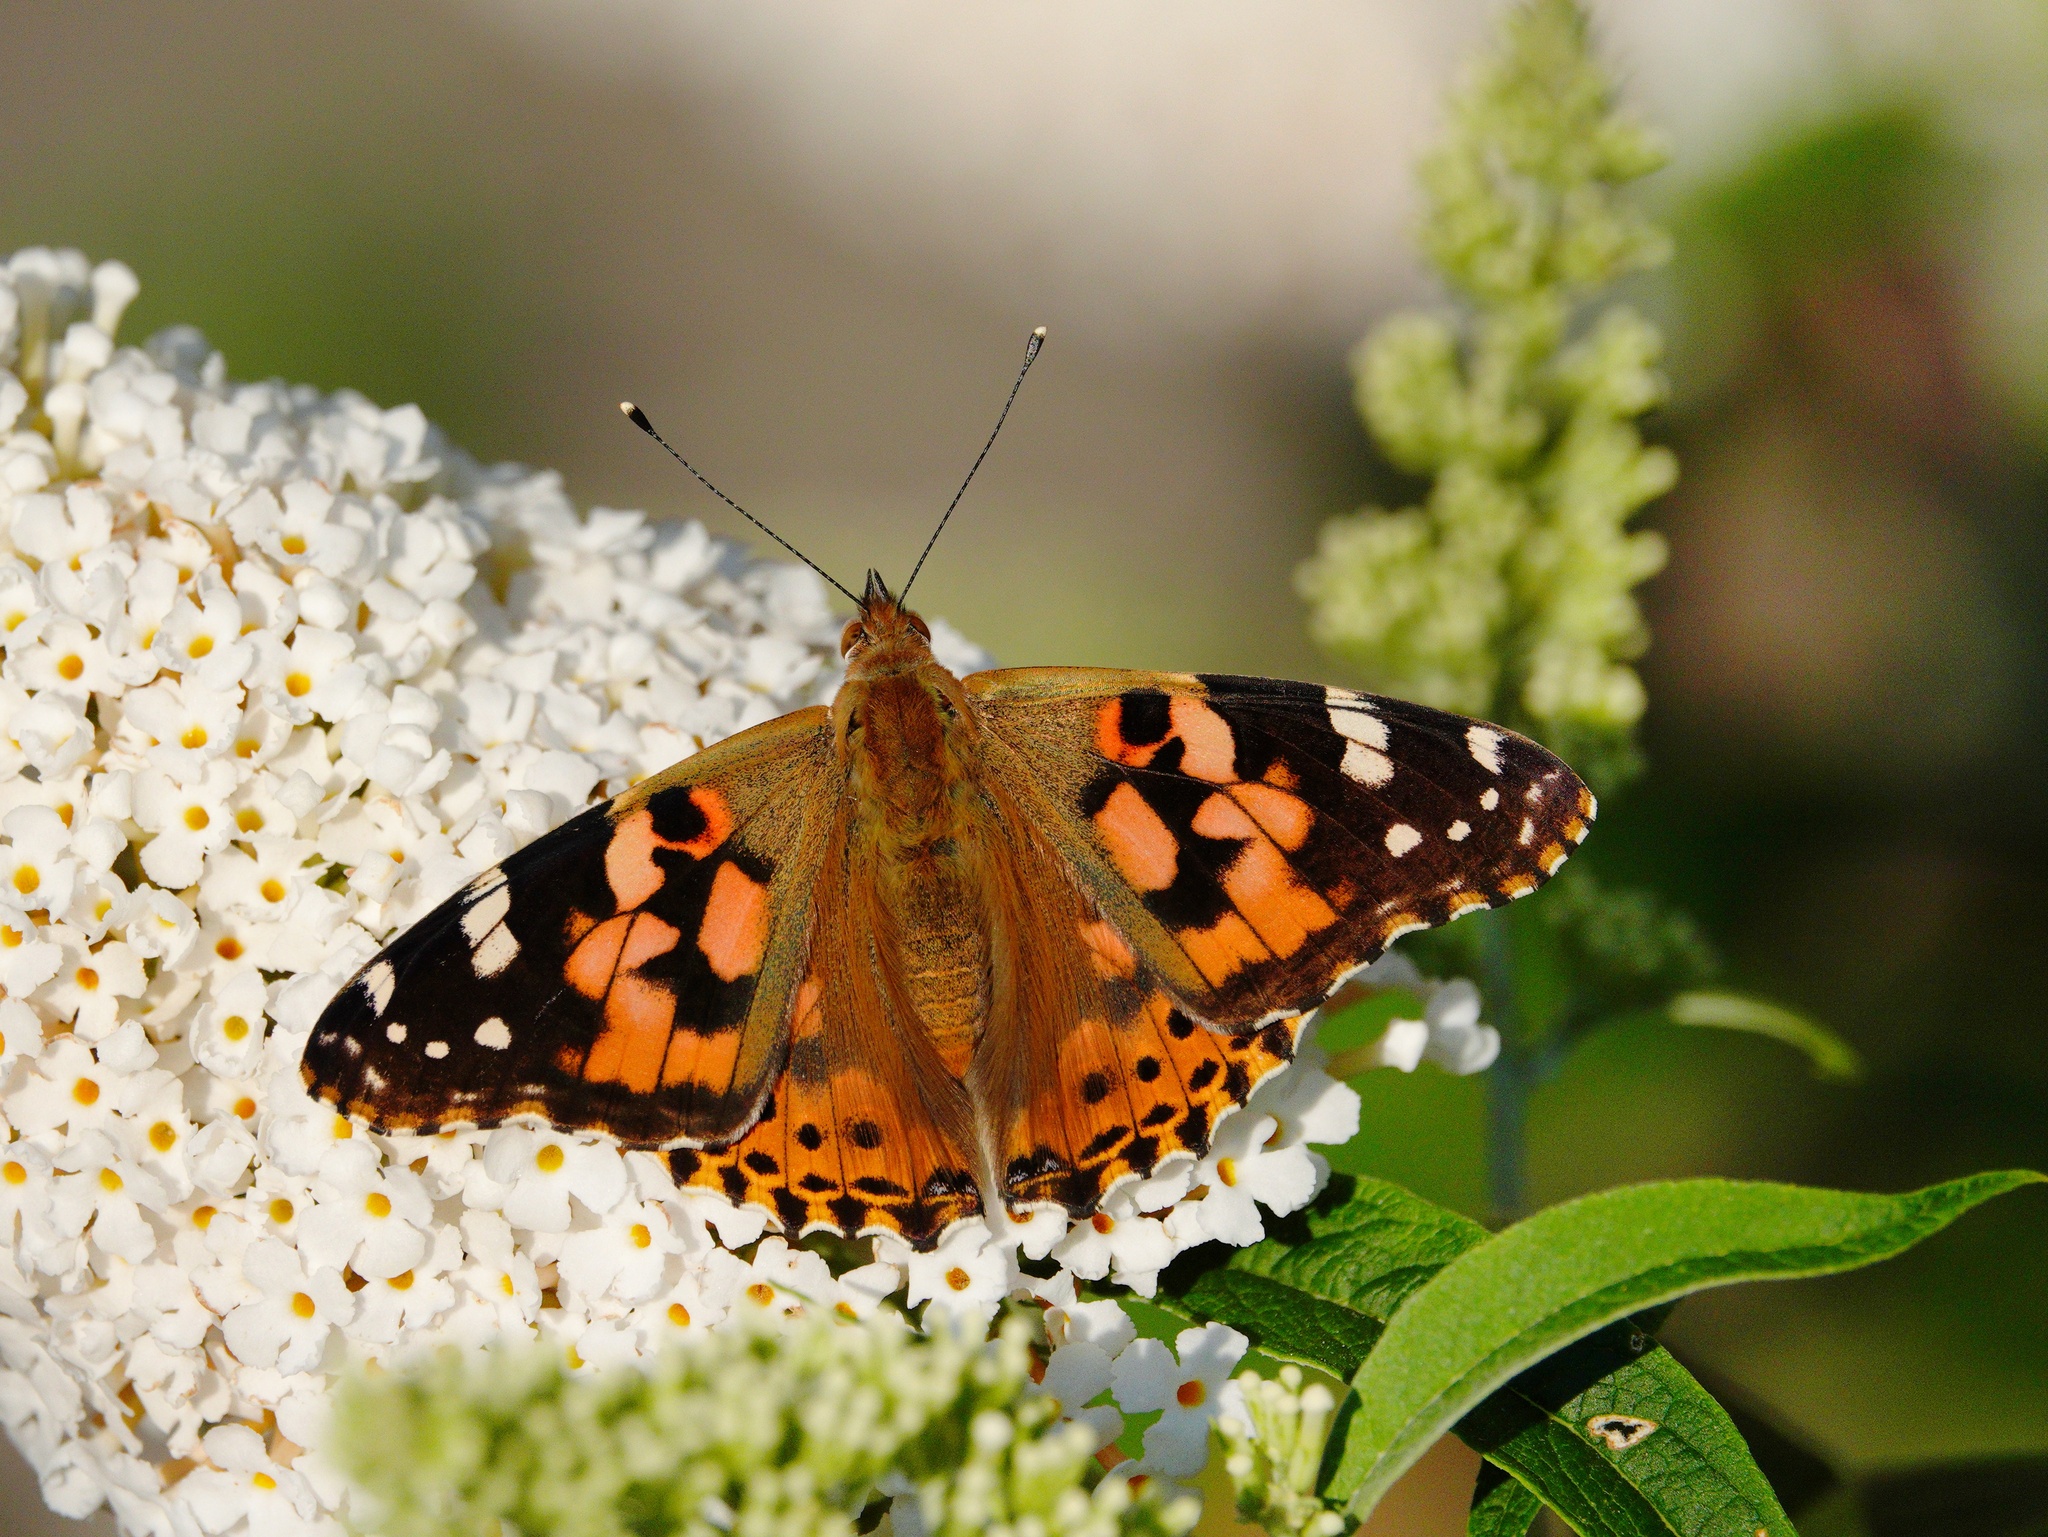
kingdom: Animalia
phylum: Arthropoda
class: Insecta
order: Lepidoptera
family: Nymphalidae
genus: Vanessa
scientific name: Vanessa cardui
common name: Painted lady
